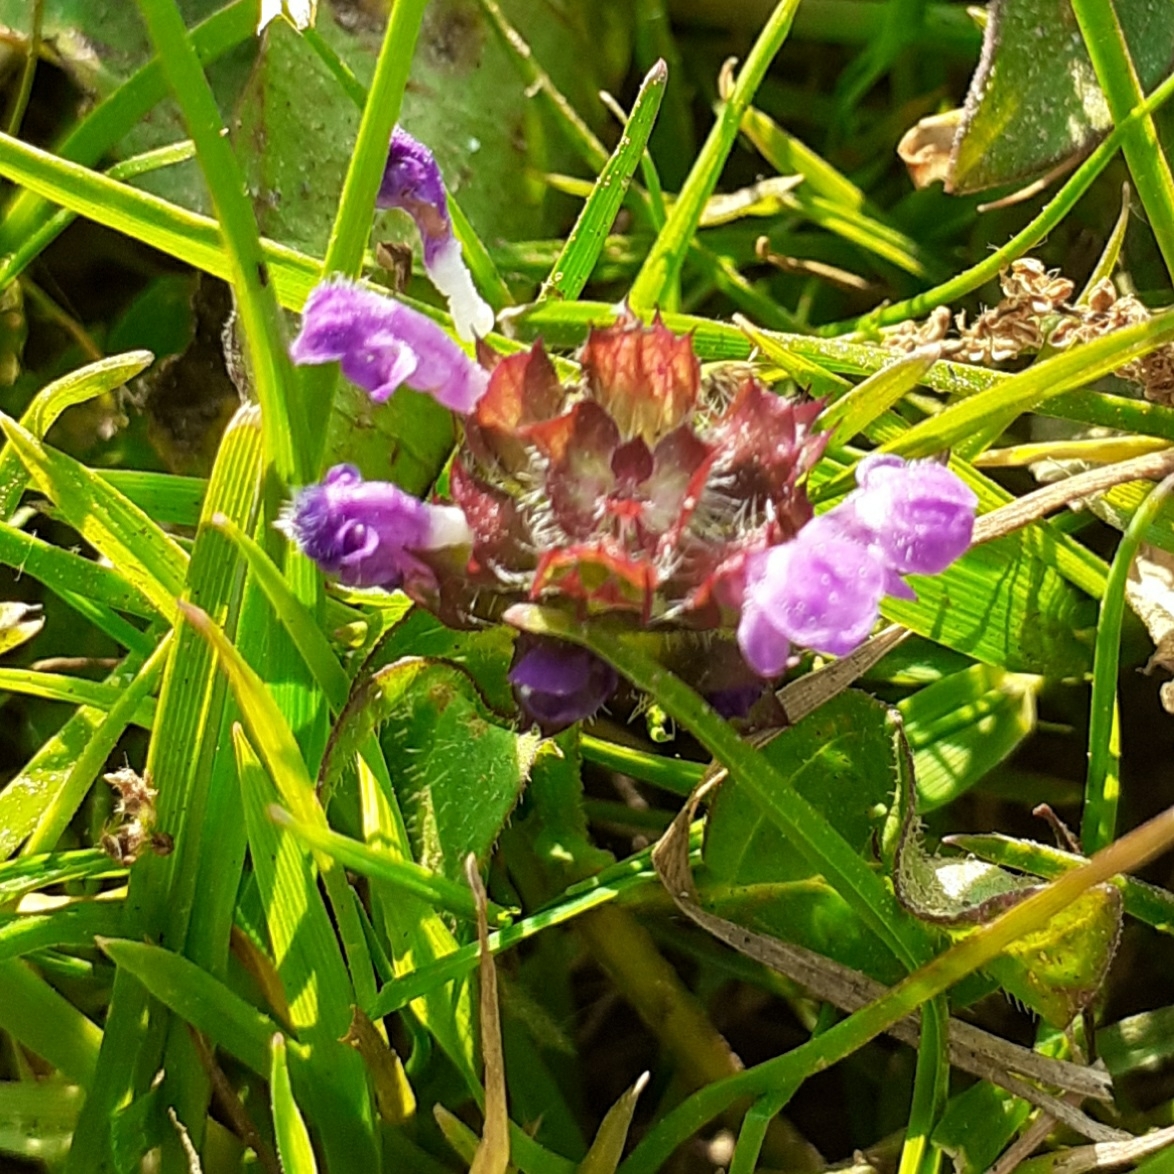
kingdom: Plantae
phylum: Tracheophyta
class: Magnoliopsida
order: Lamiales
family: Lamiaceae
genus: Prunella
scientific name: Prunella vulgaris
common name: Heal-all
